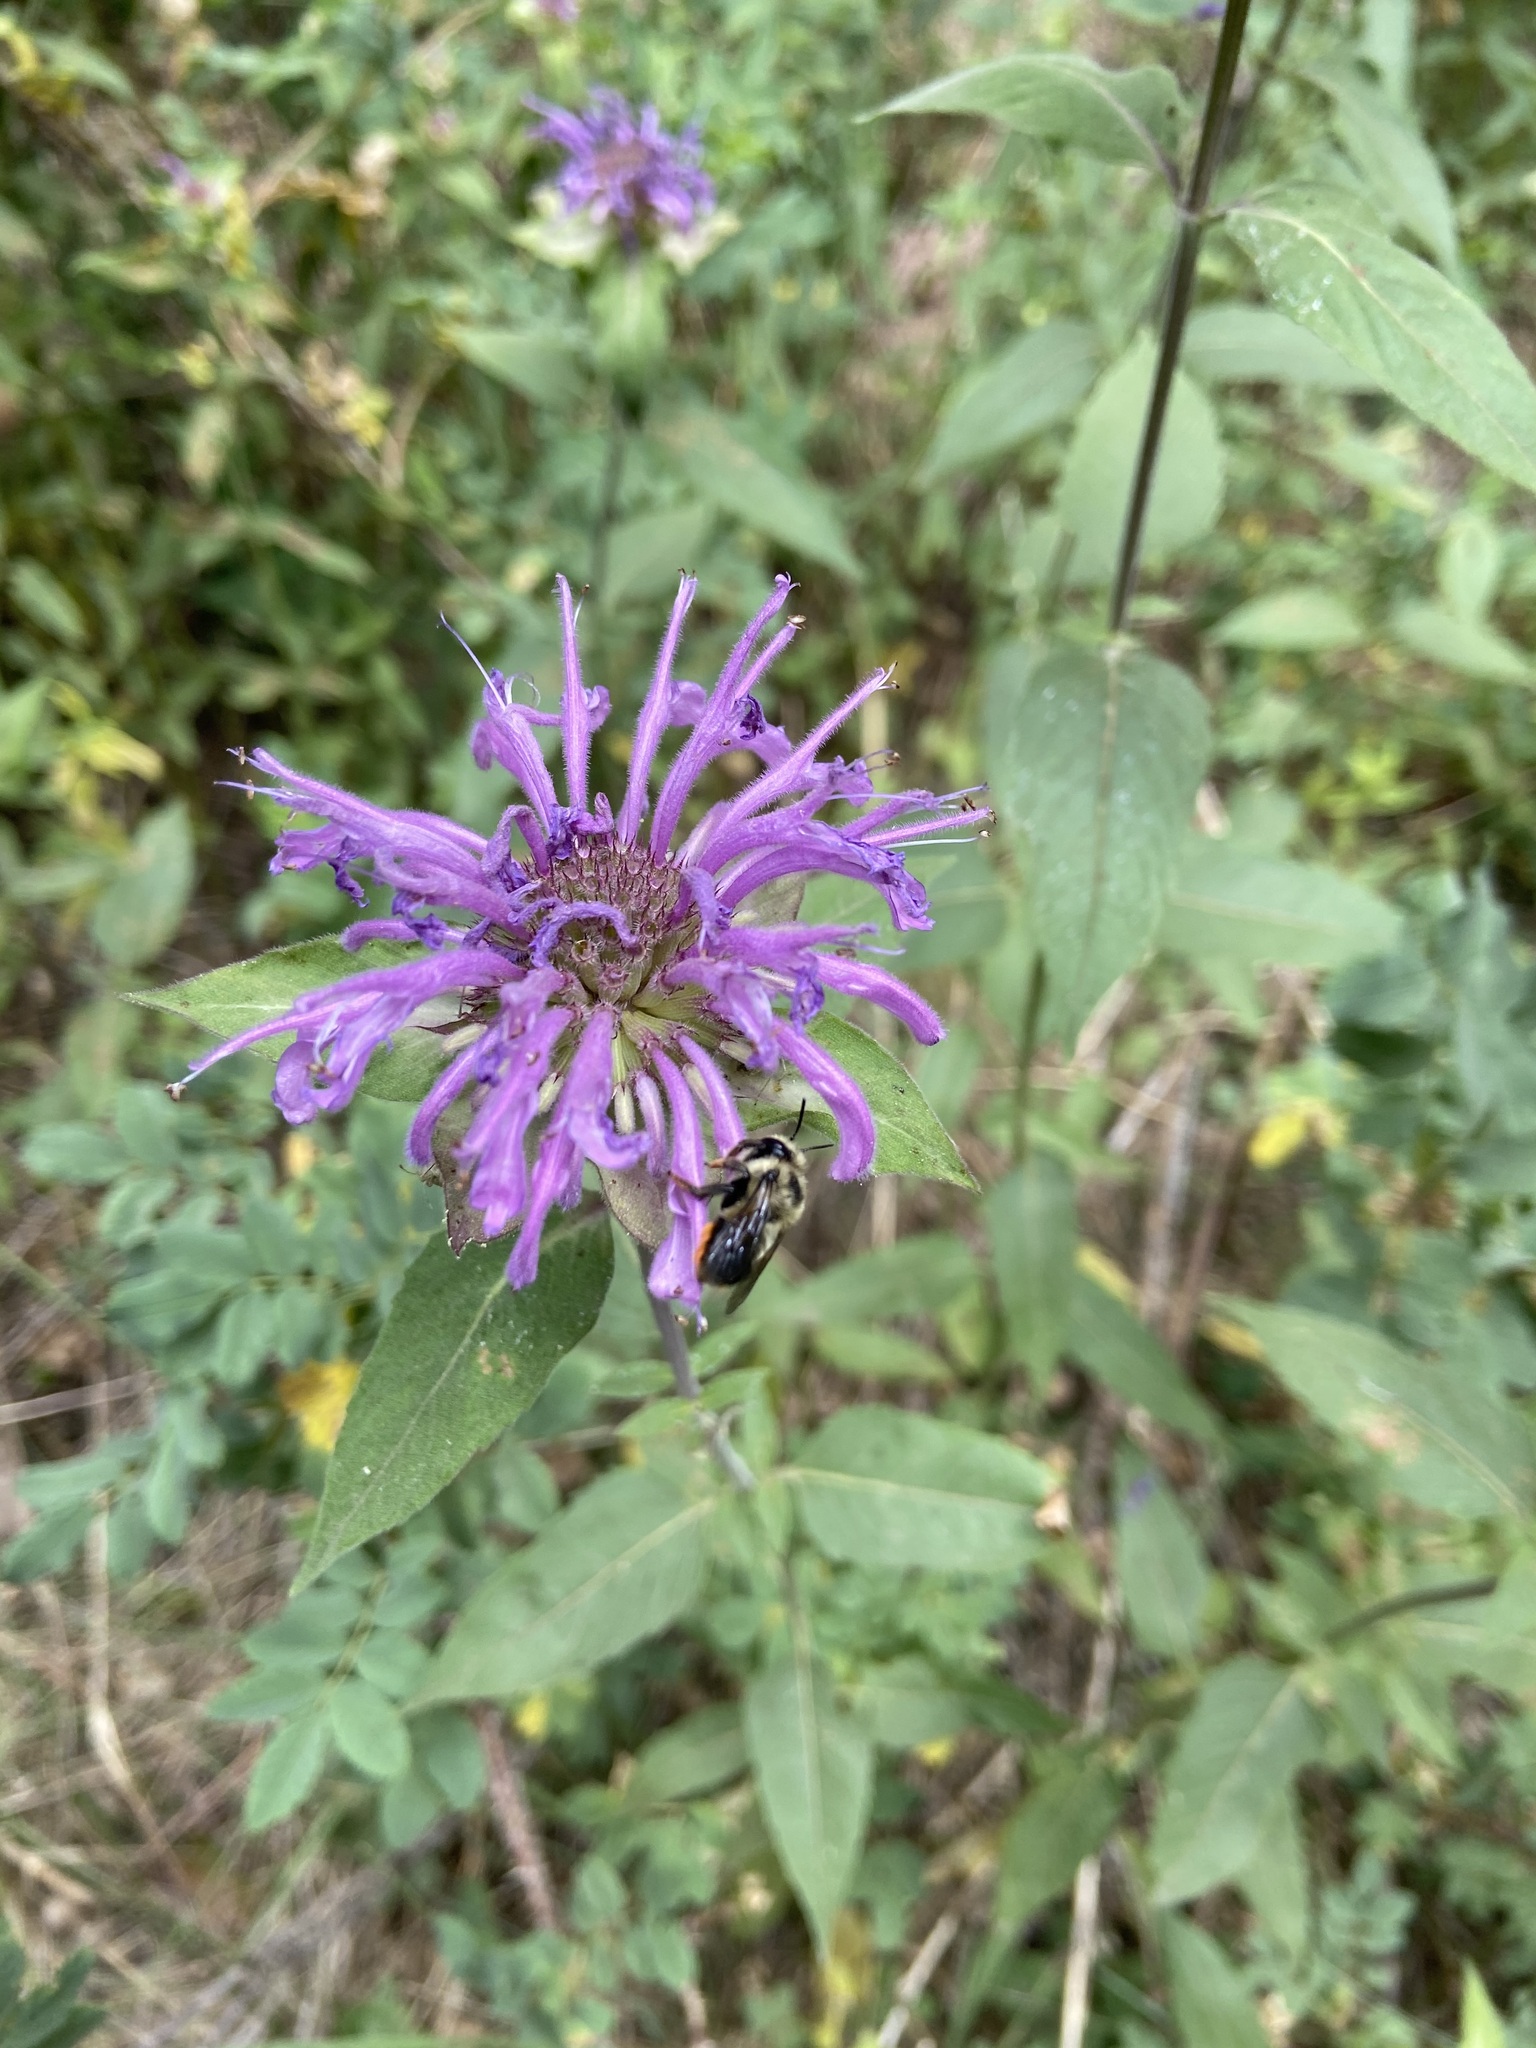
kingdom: Plantae
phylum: Tracheophyta
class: Magnoliopsida
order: Lamiales
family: Lamiaceae
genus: Monarda
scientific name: Monarda fistulosa
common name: Purple beebalm
